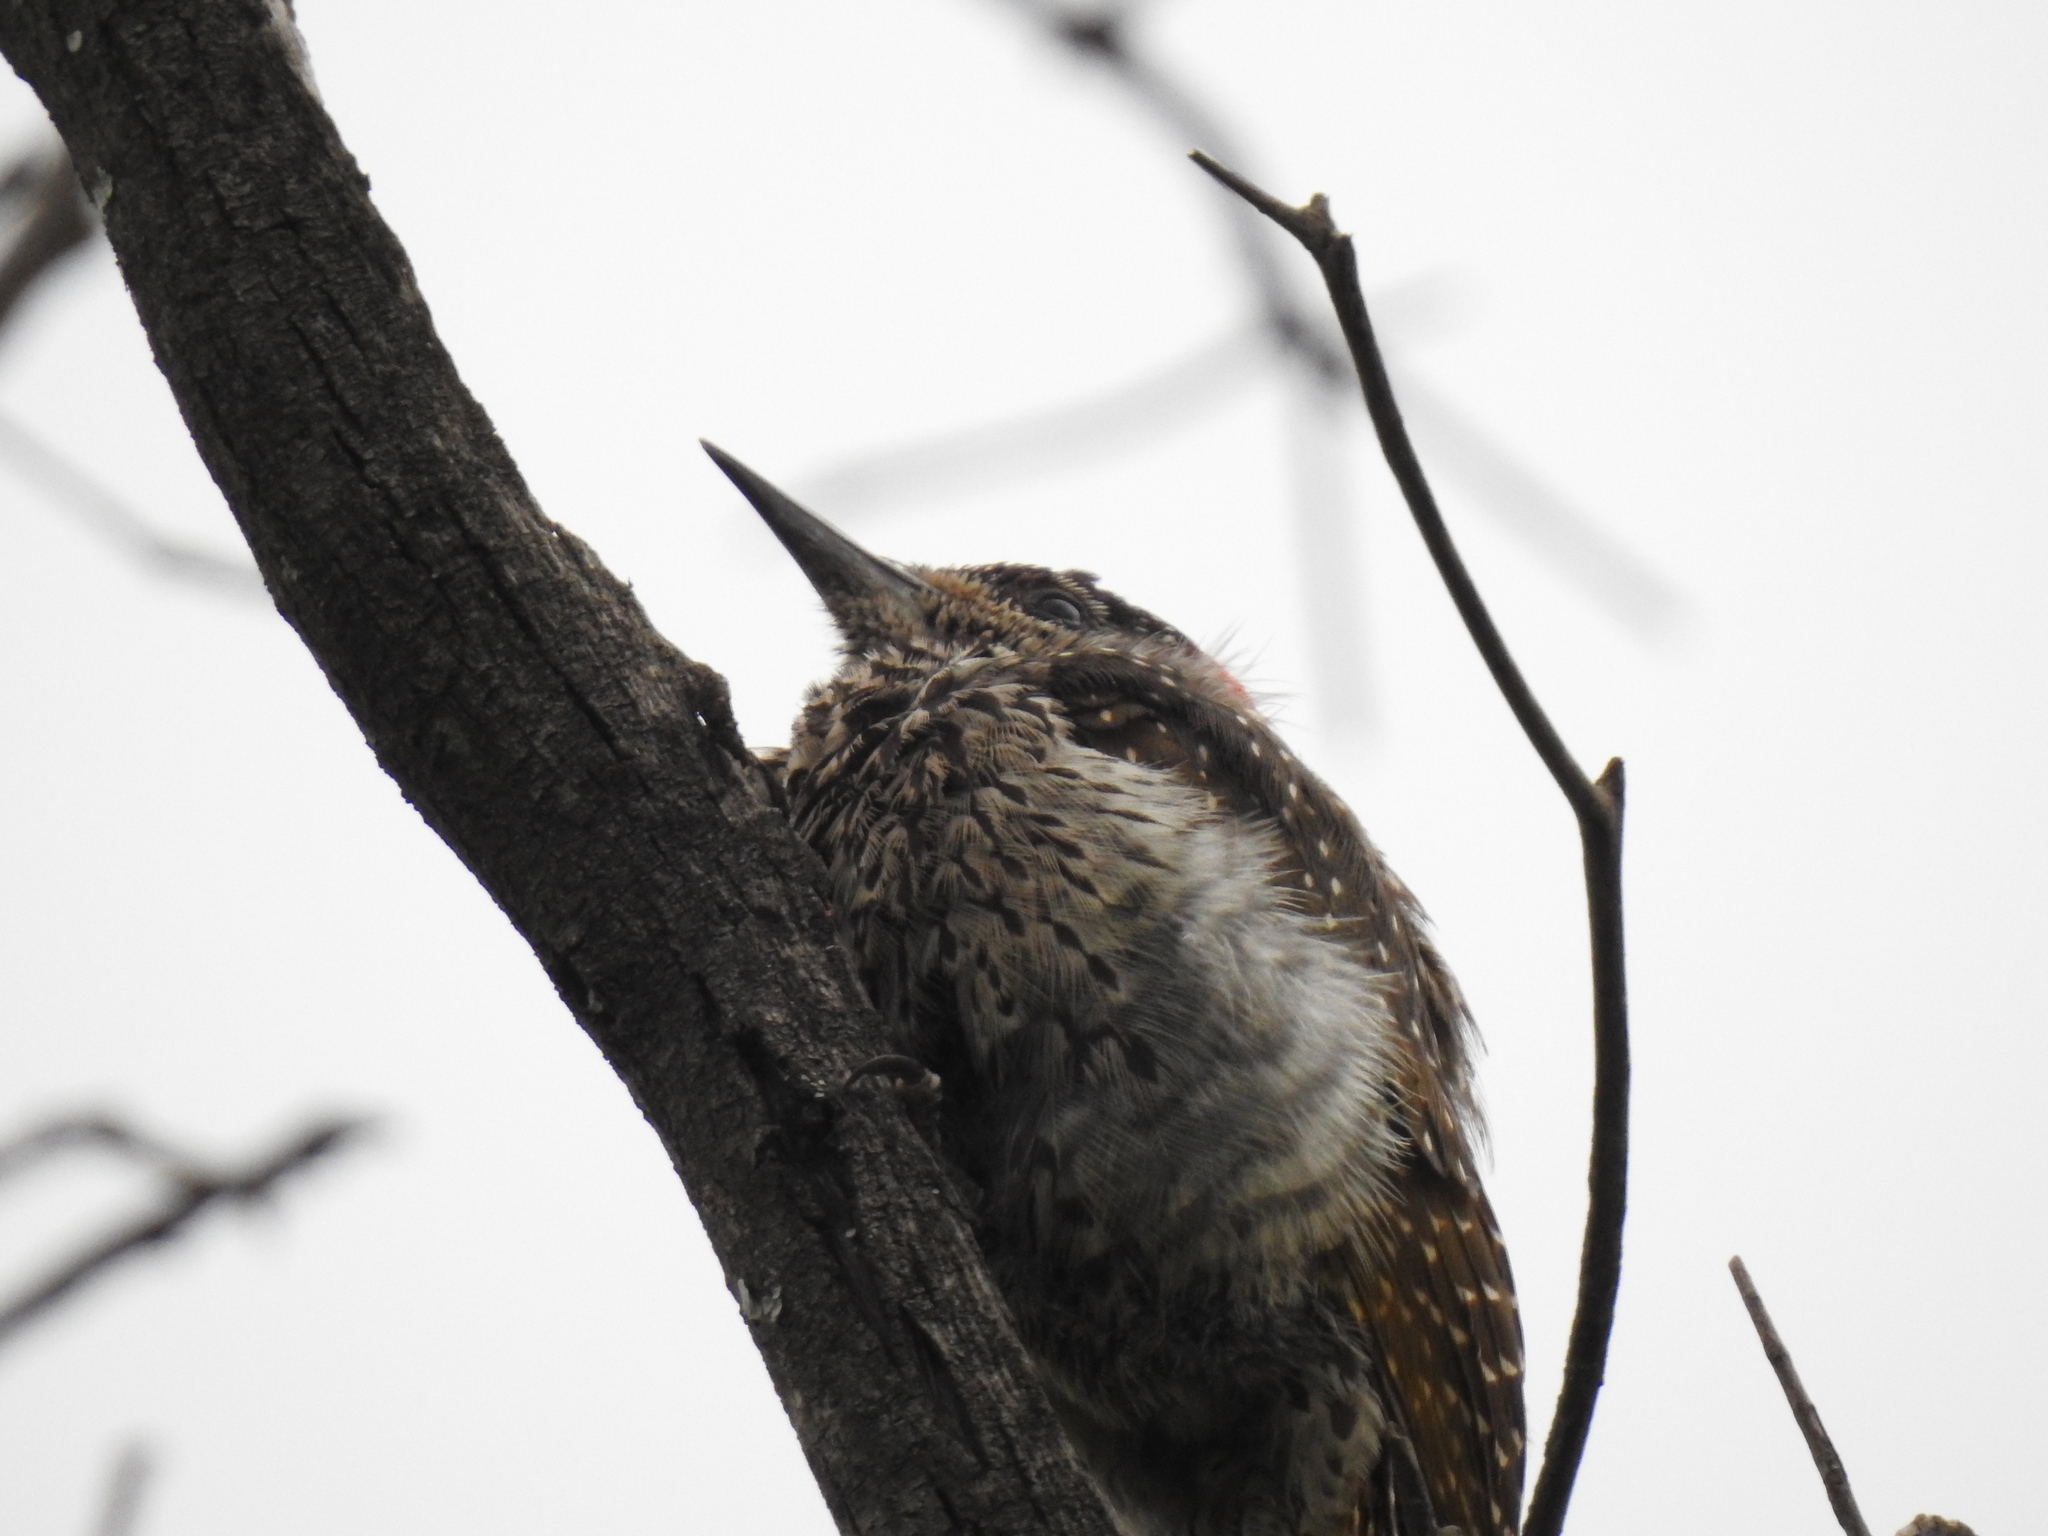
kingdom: Animalia
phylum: Chordata
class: Aves
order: Piciformes
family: Picidae
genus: Campethera
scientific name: Campethera abingoni
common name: Golden-tailed woodpecker
